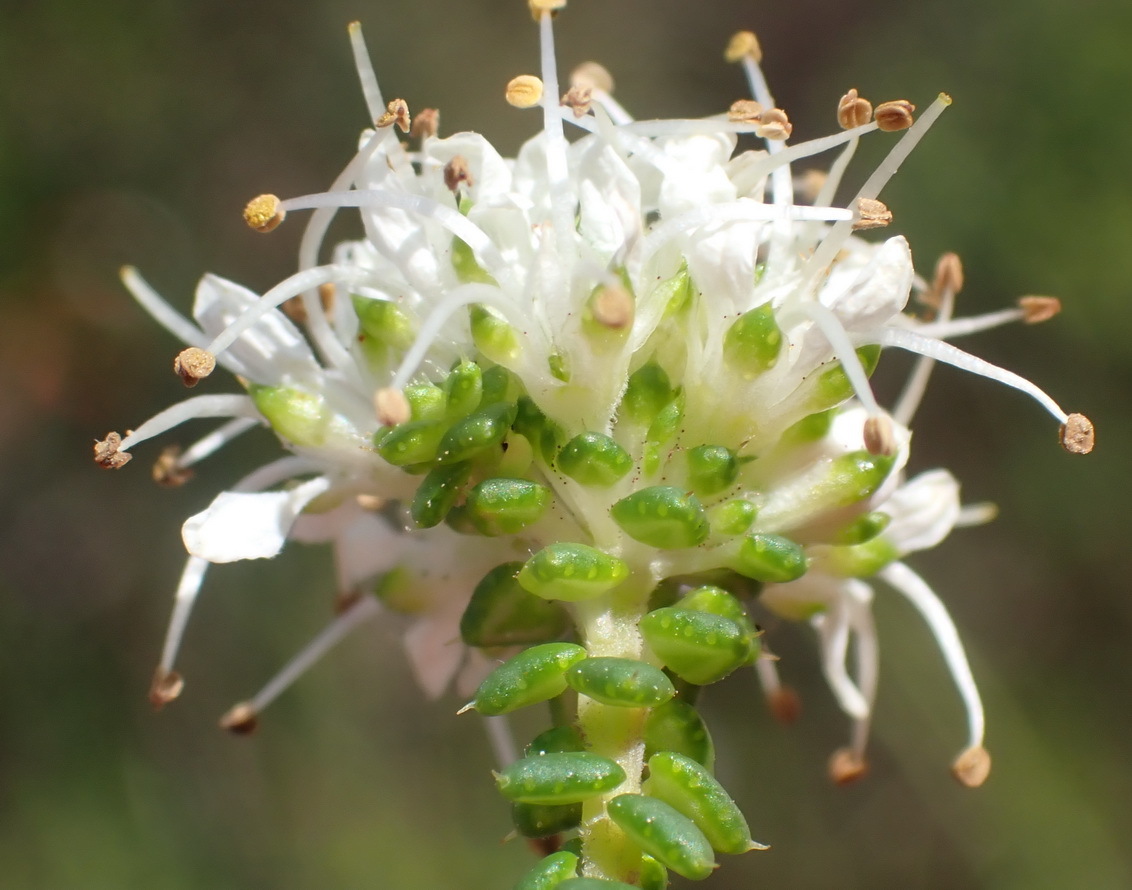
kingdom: Plantae
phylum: Tracheophyta
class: Magnoliopsida
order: Sapindales
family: Rutaceae
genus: Agathosma
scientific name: Agathosma apiculata
